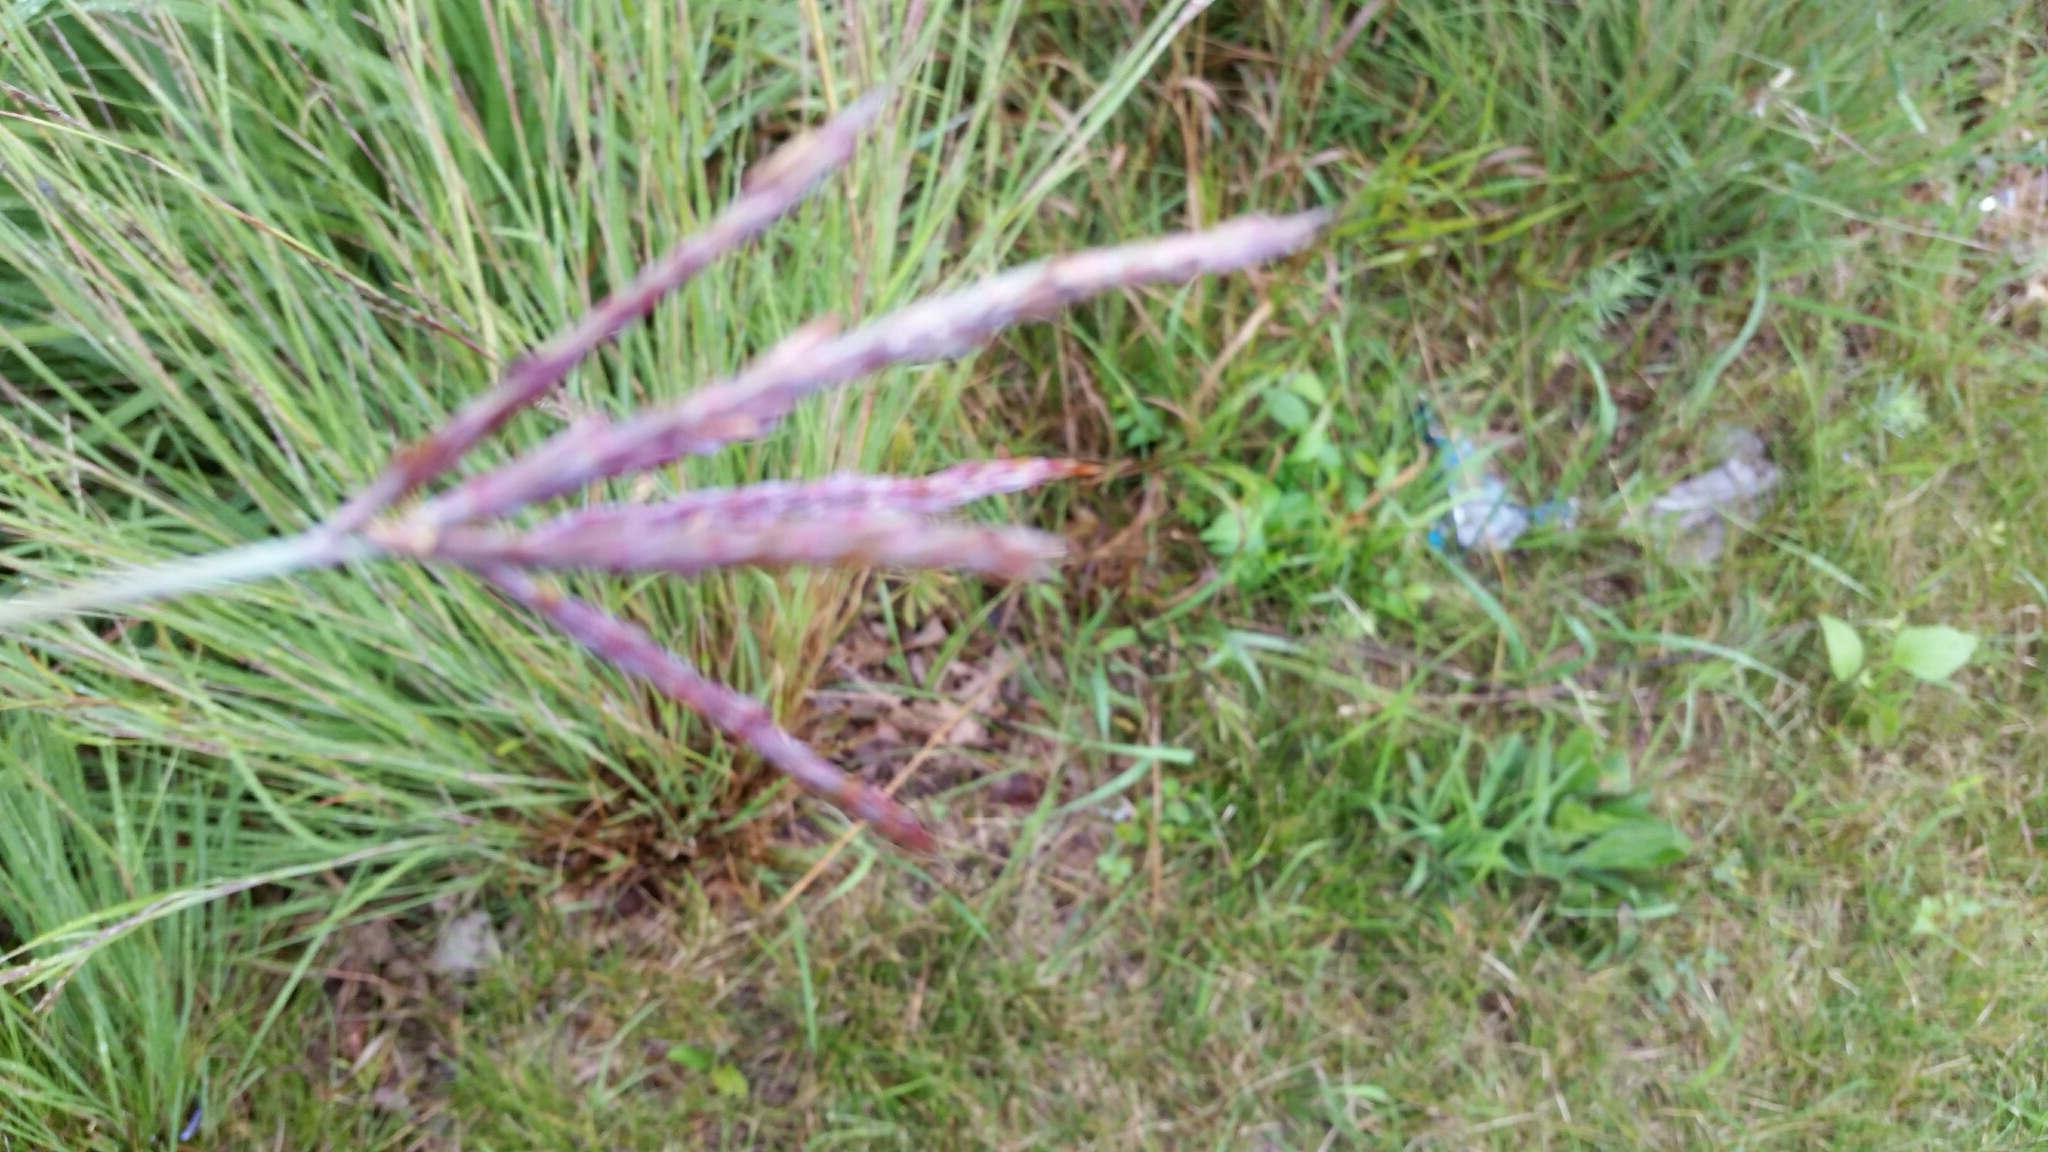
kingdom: Plantae
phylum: Tracheophyta
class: Liliopsida
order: Poales
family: Poaceae
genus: Andropogon
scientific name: Andropogon gerardi
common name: Big bluestem
